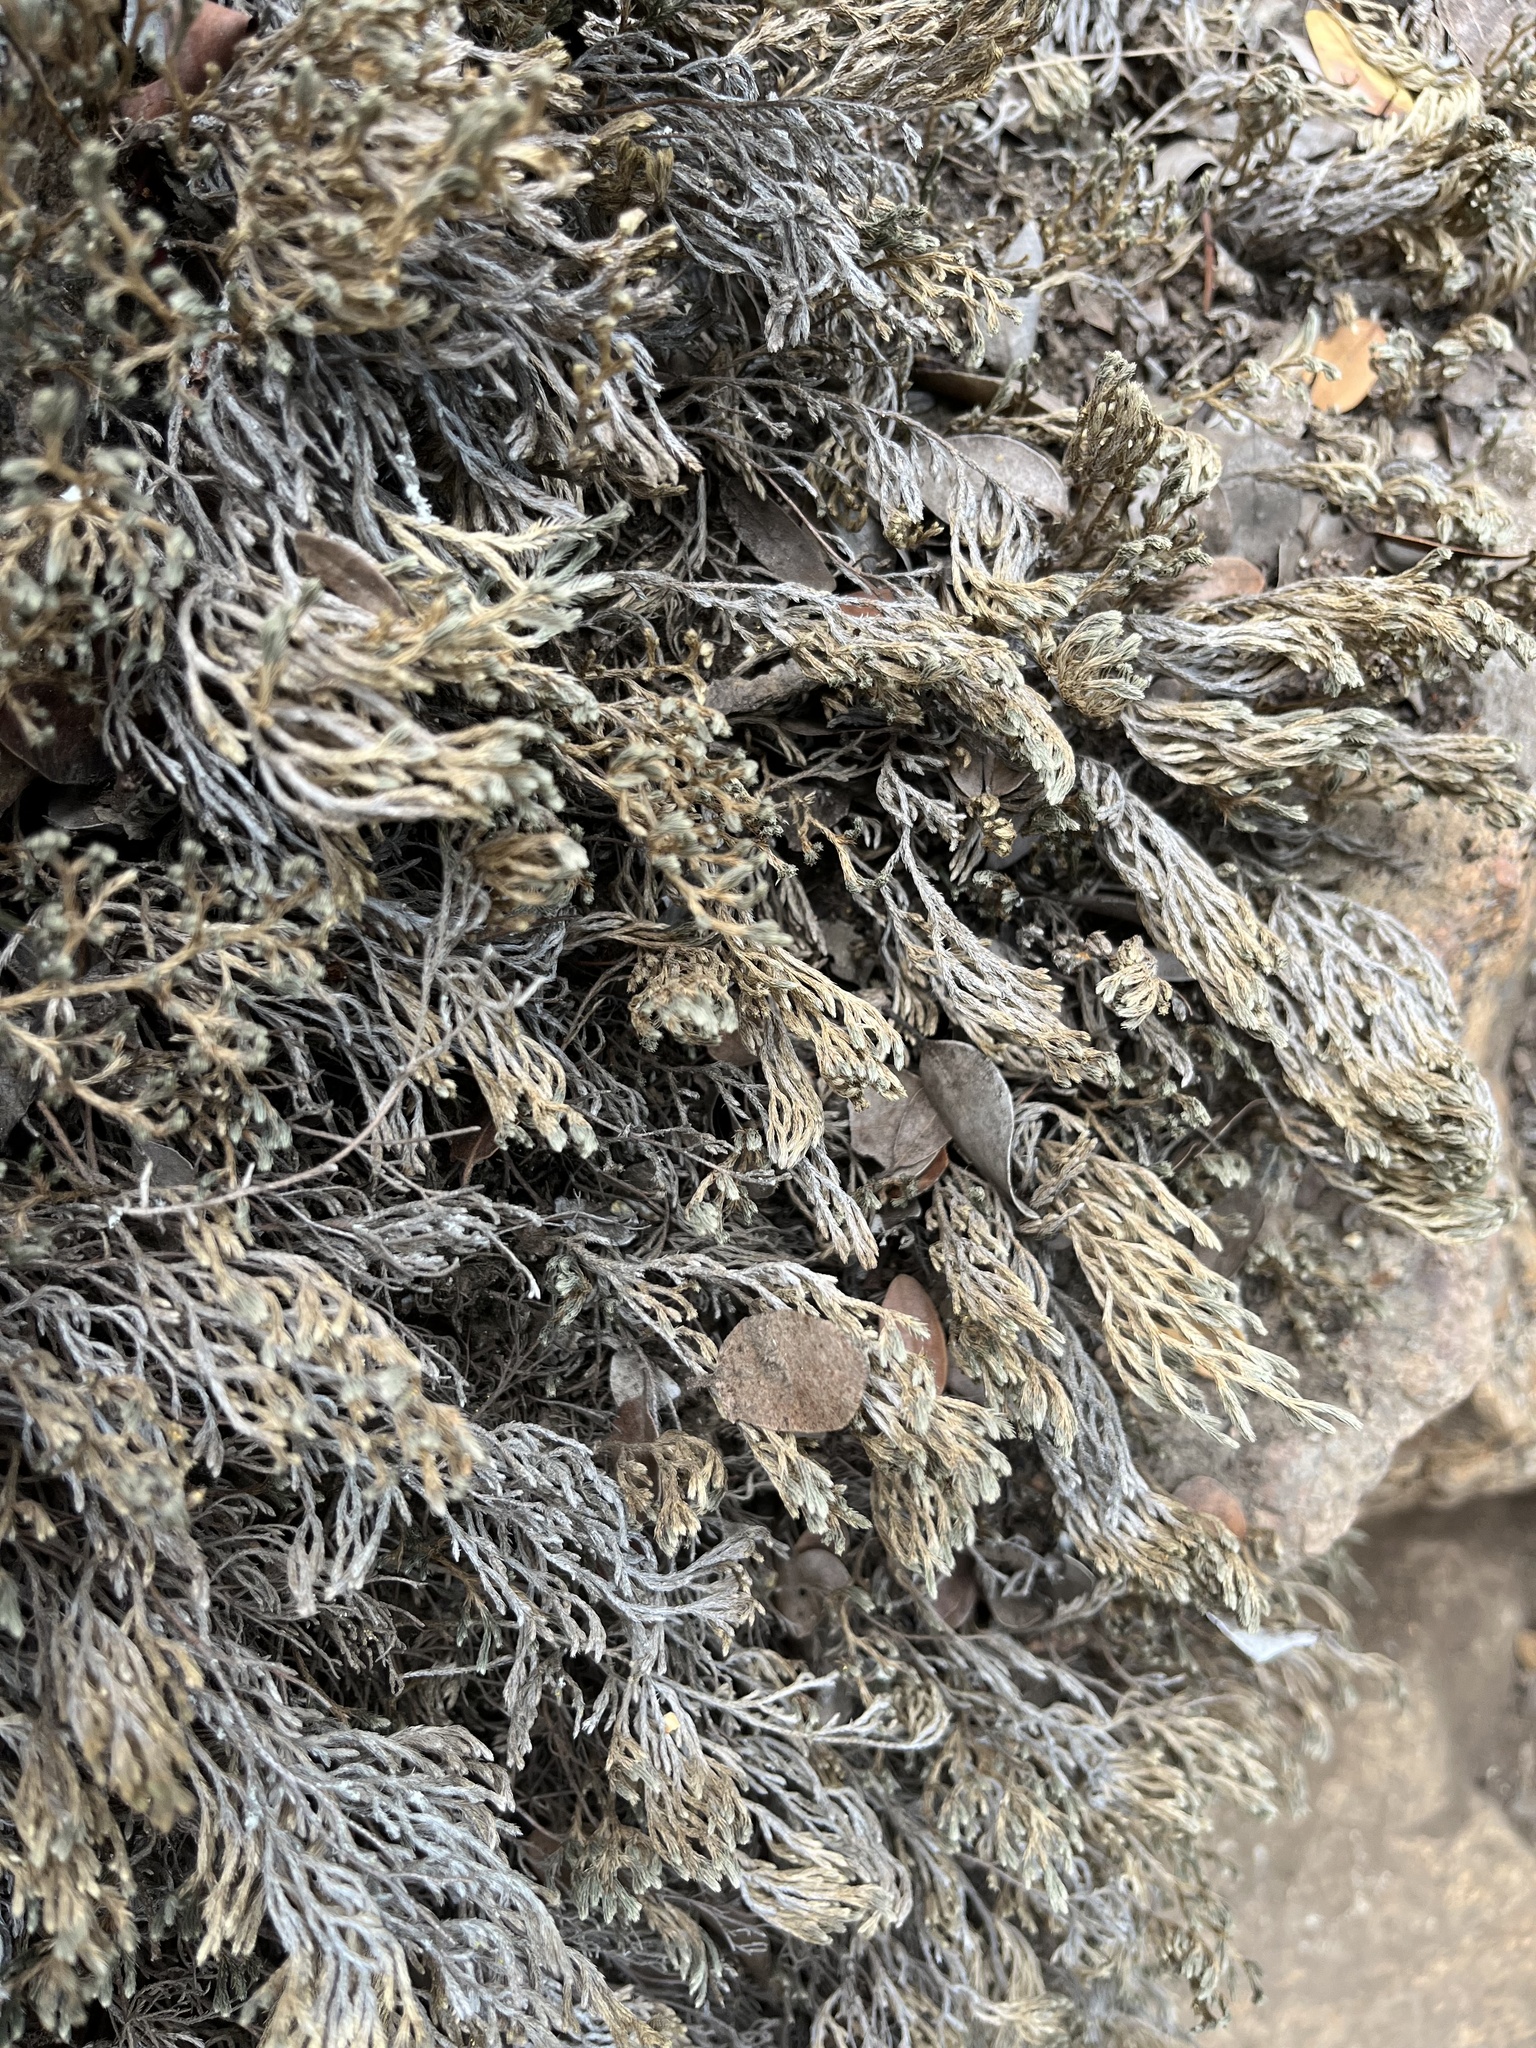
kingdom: Plantae
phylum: Tracheophyta
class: Lycopodiopsida
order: Selaginellales
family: Selaginellaceae
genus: Selaginella
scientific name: Selaginella bigelovii
